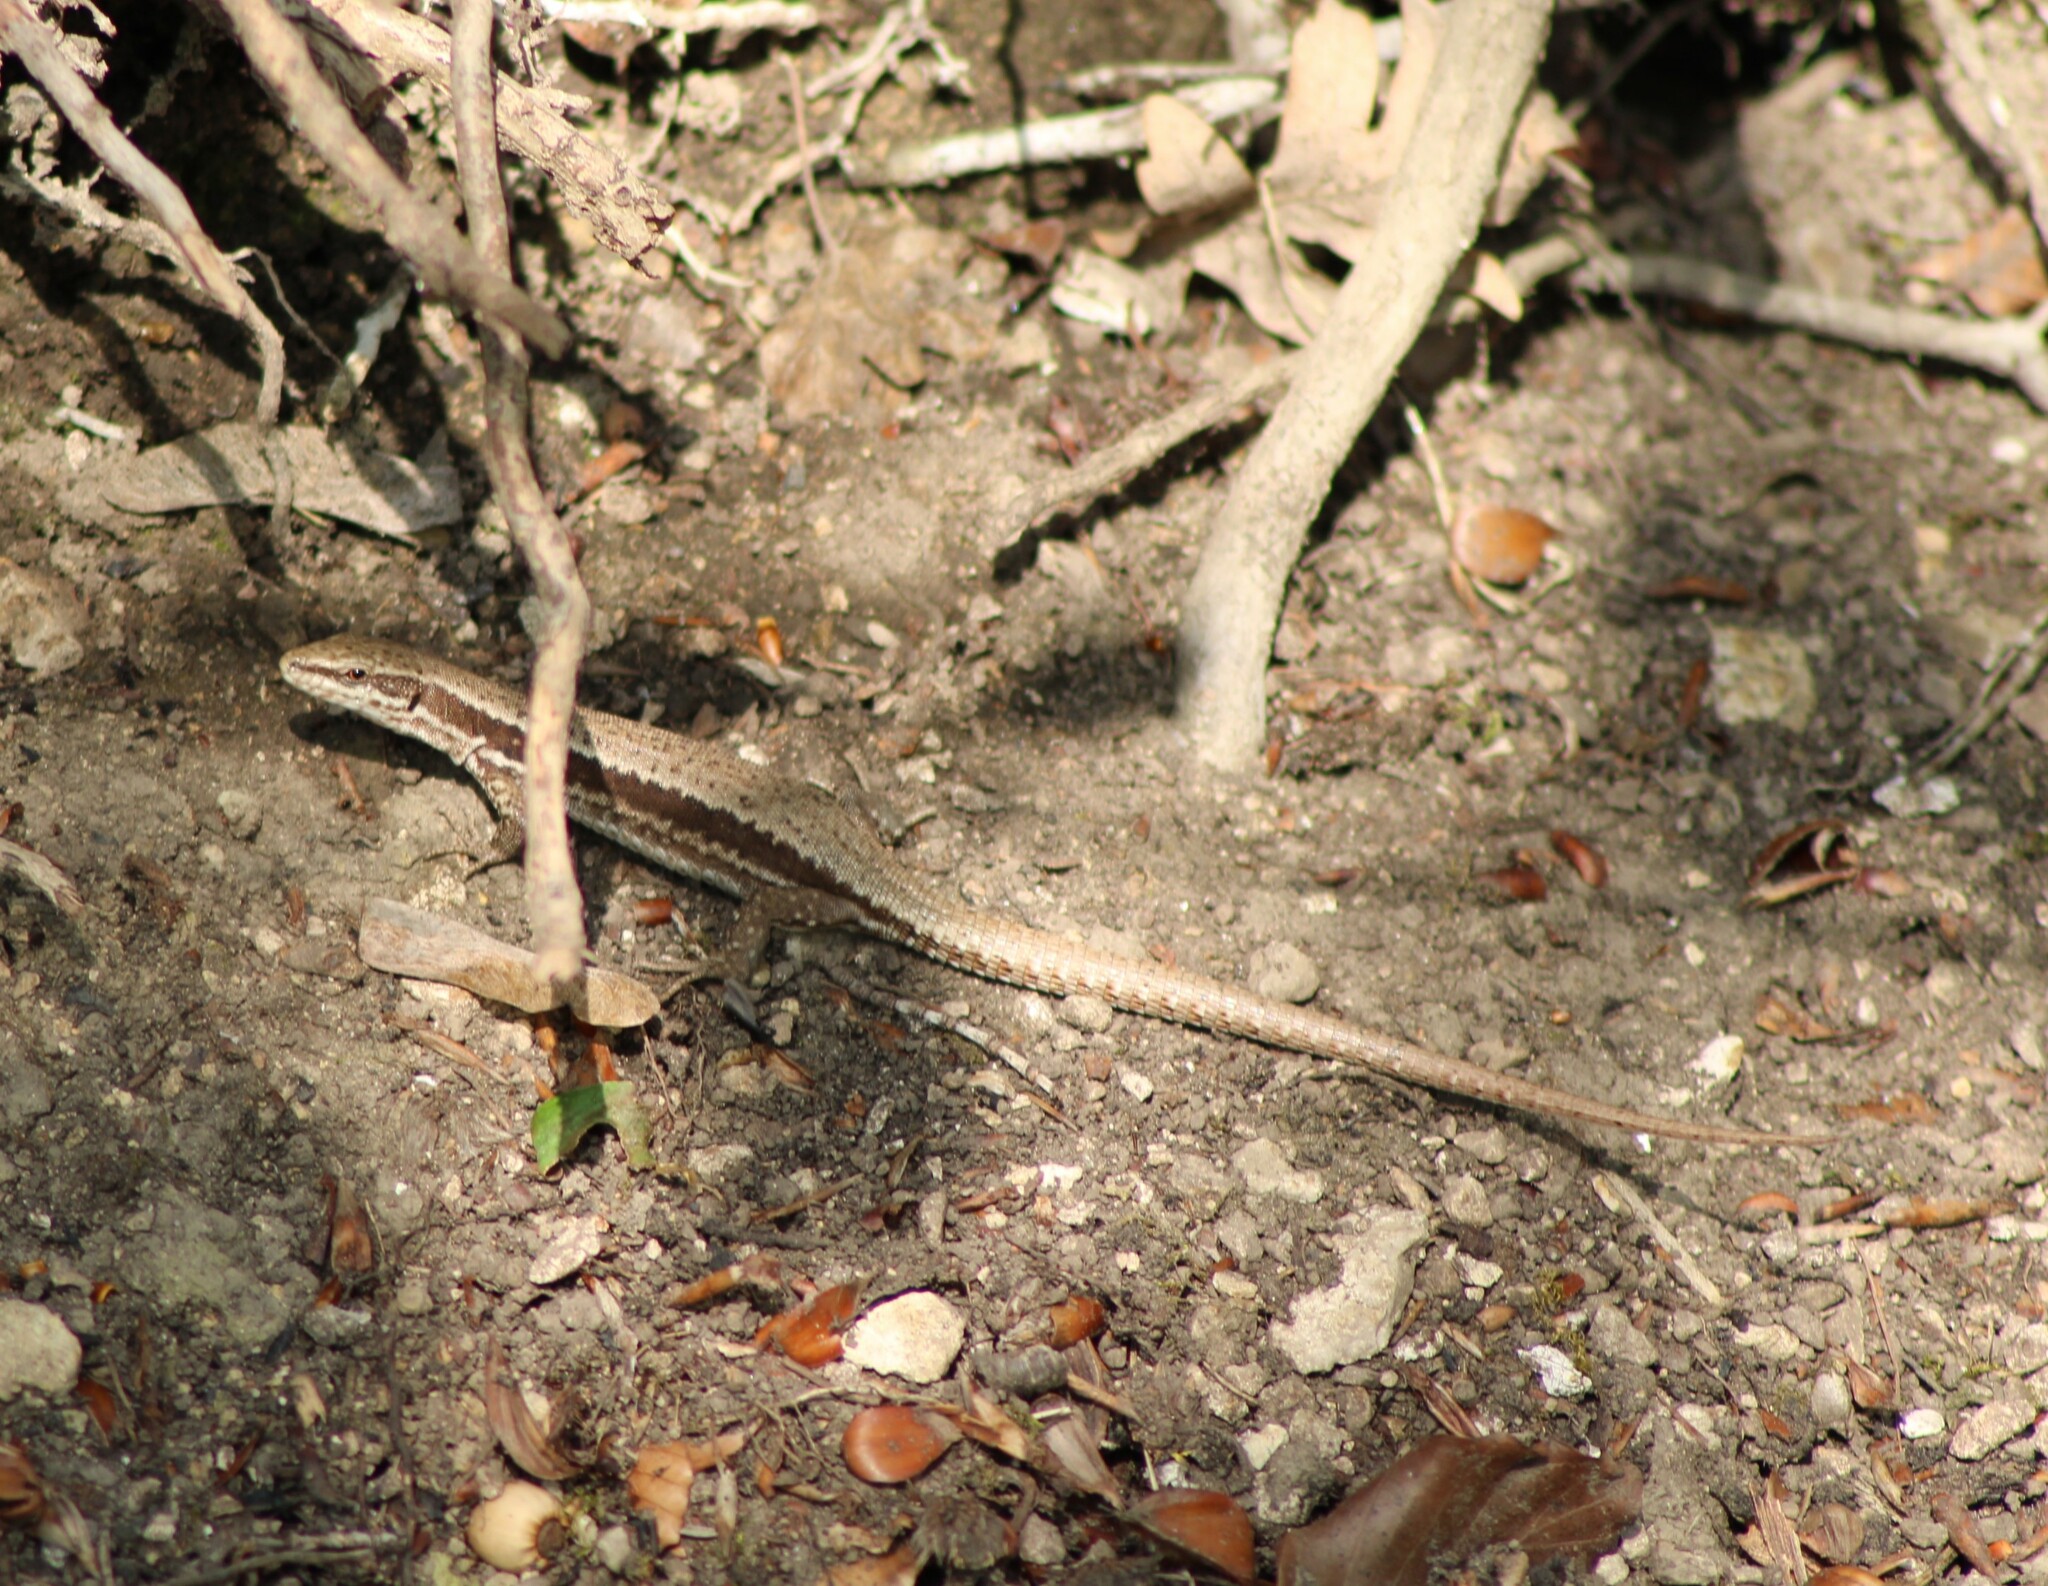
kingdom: Animalia
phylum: Chordata
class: Squamata
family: Lacertidae
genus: Podarcis
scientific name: Podarcis muralis
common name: Common wall lizard
